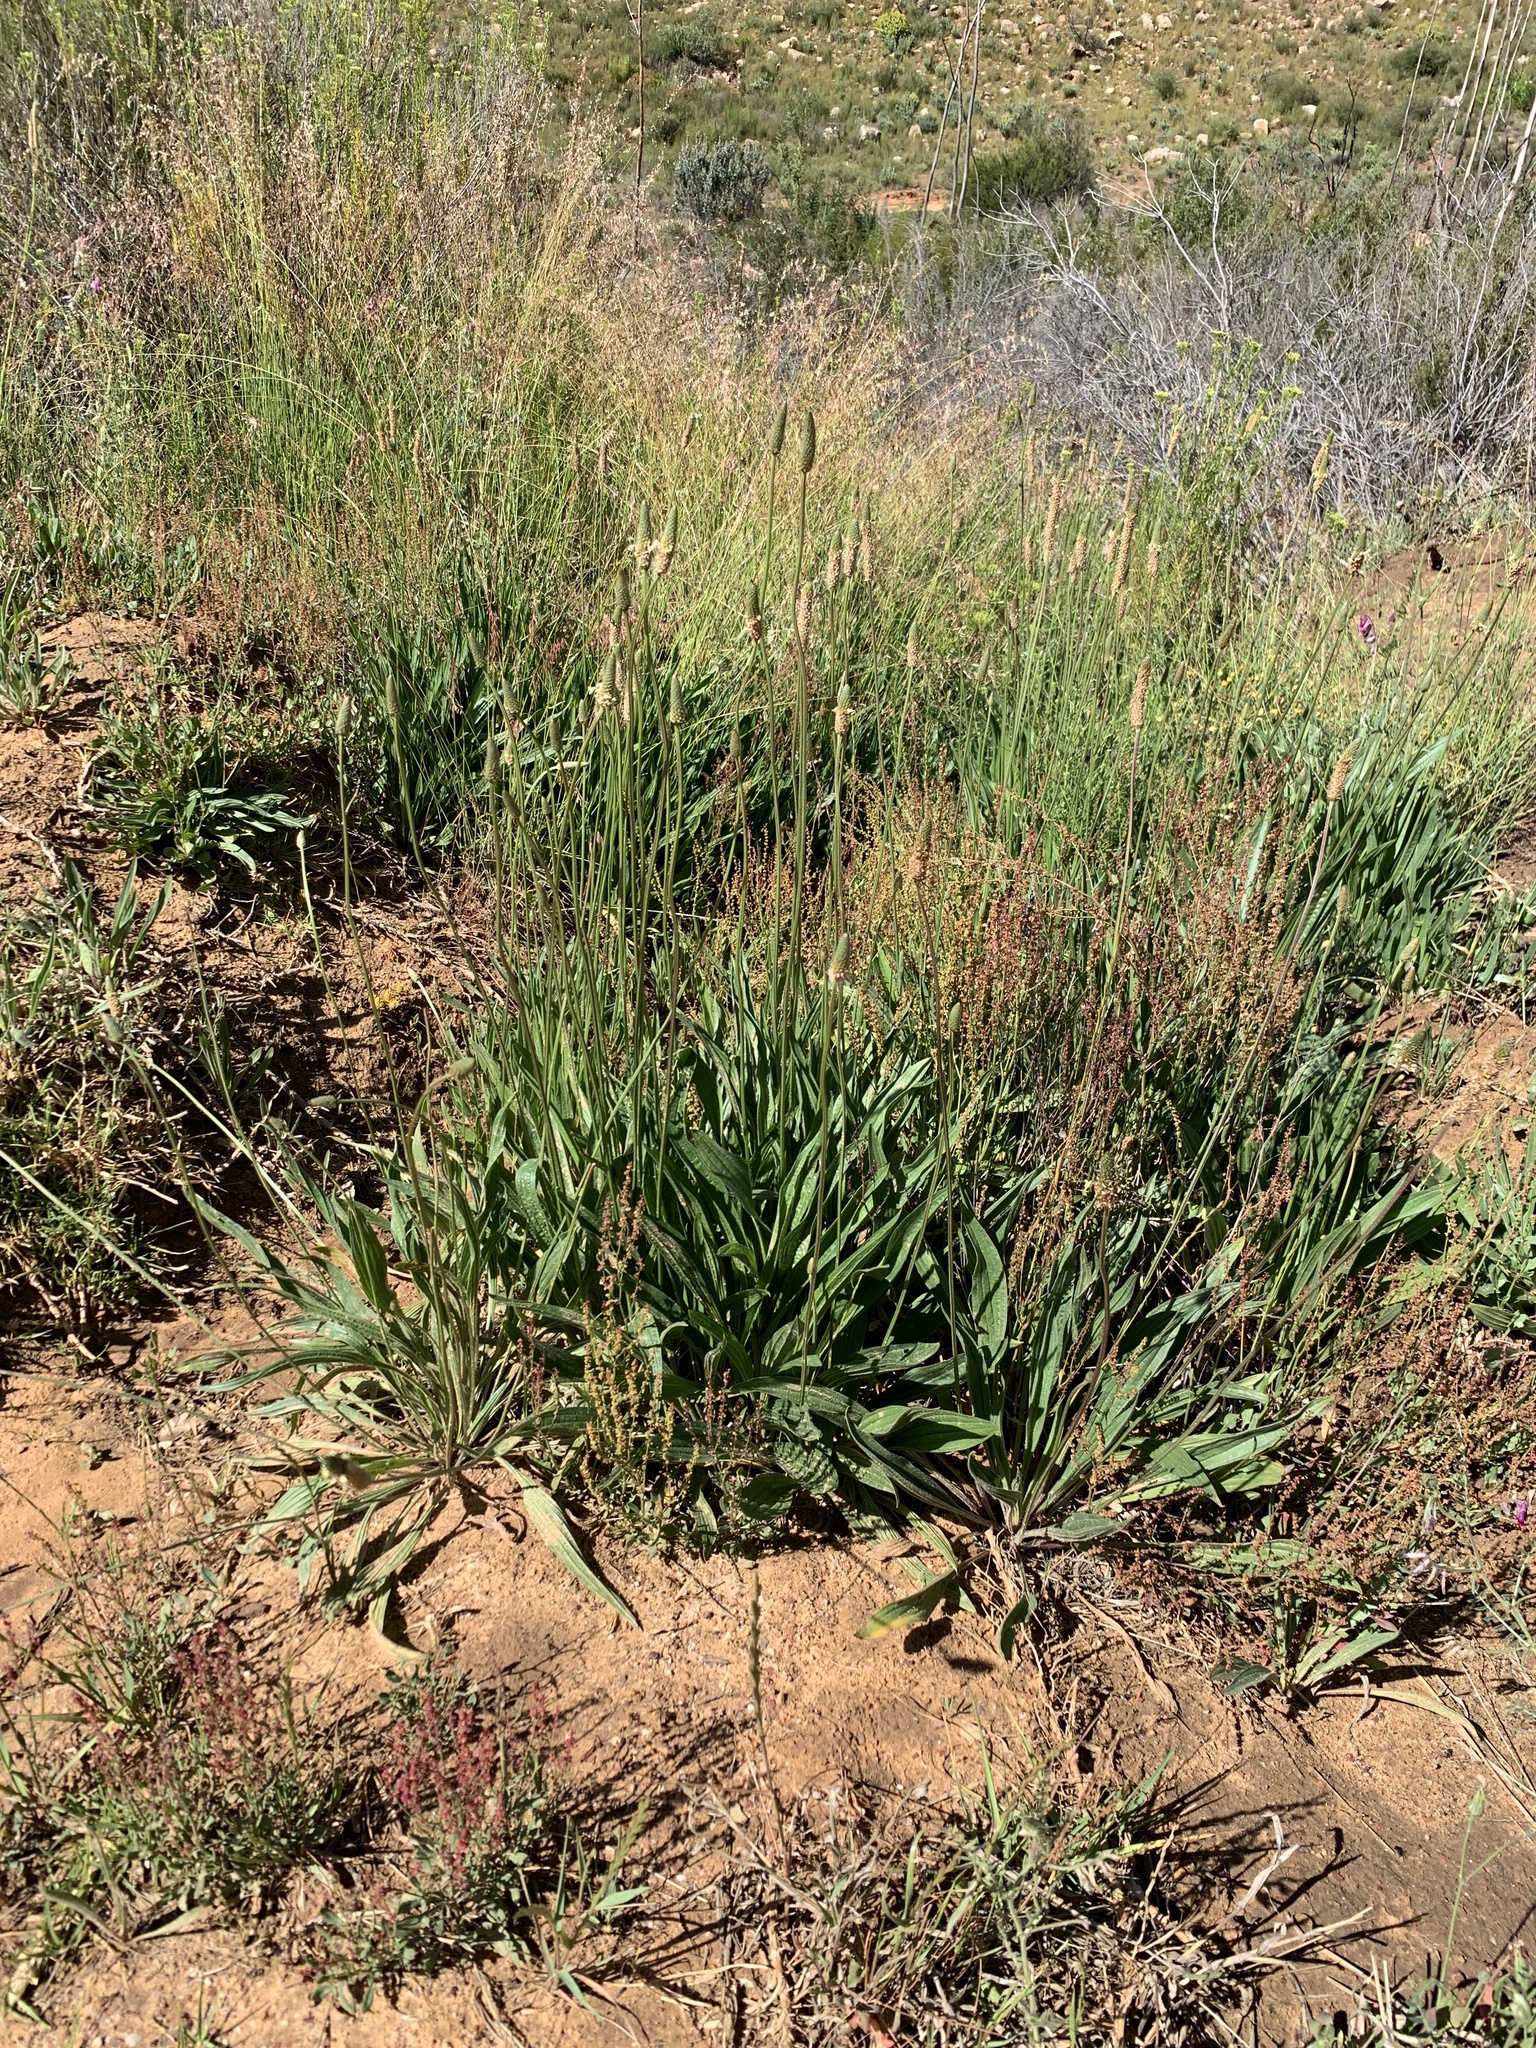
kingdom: Plantae
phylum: Tracheophyta
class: Magnoliopsida
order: Lamiales
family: Plantaginaceae
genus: Plantago
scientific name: Plantago lanceolata
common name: Ribwort plantain
